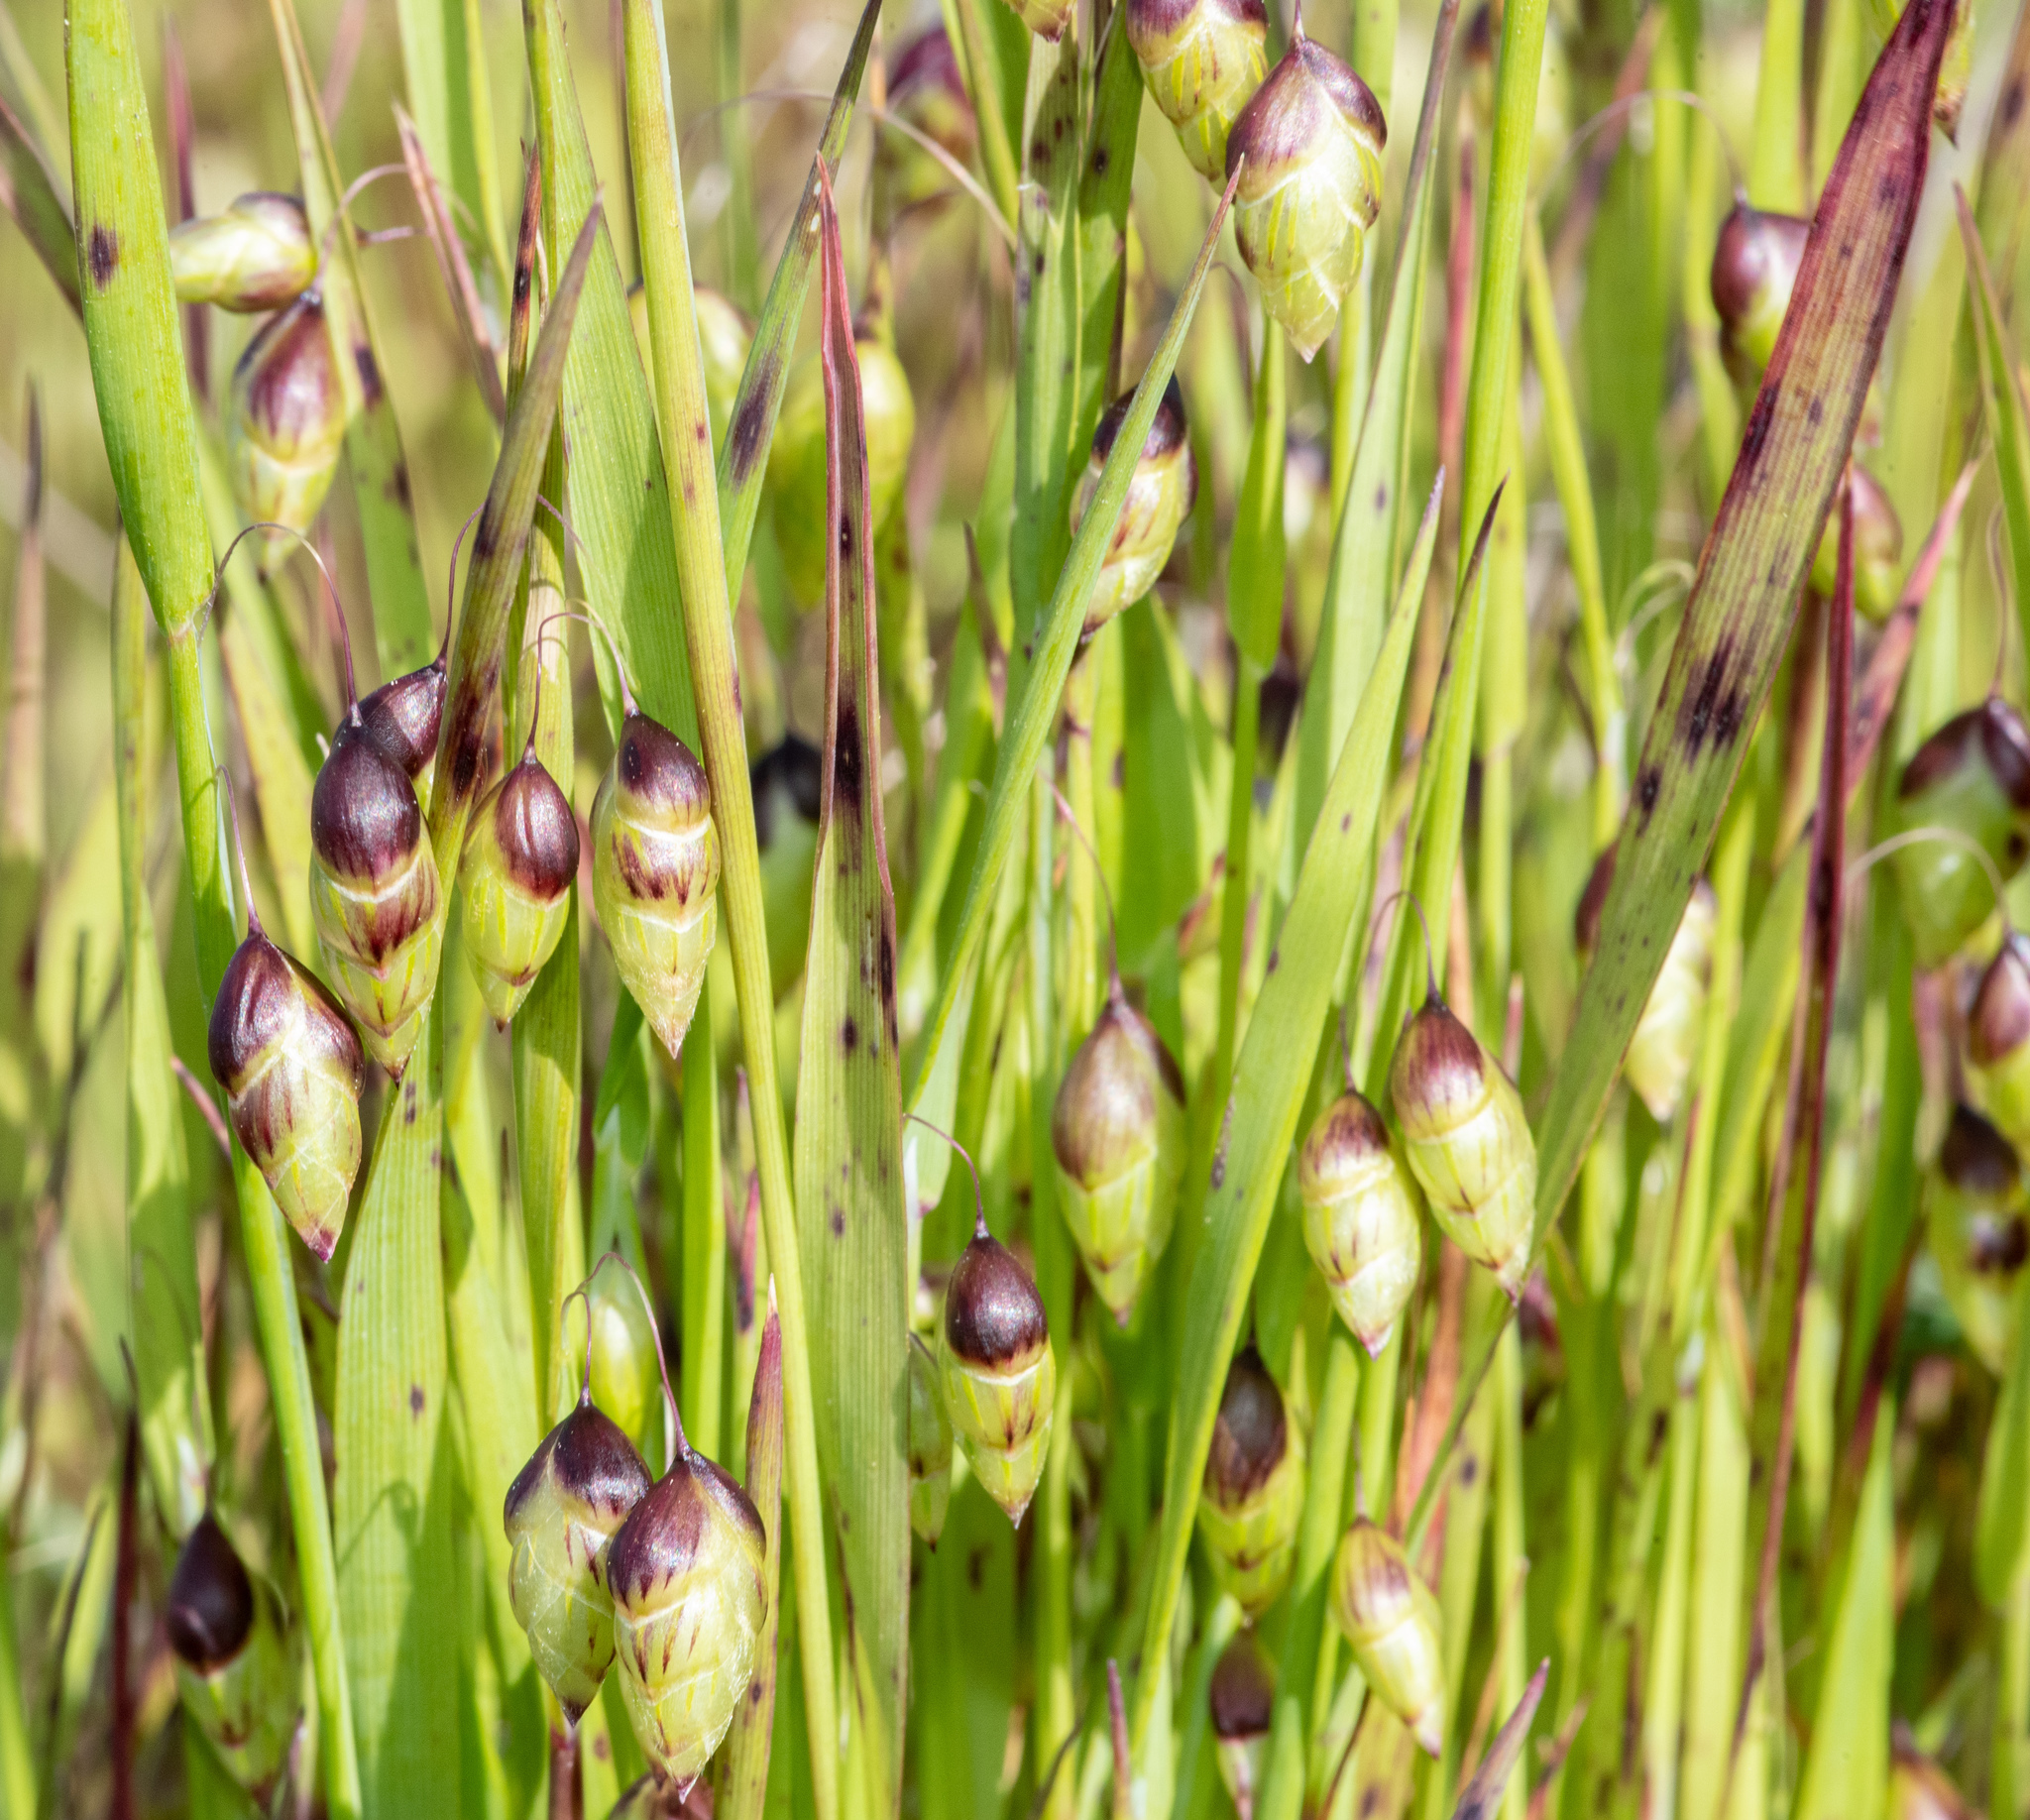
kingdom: Plantae
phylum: Tracheophyta
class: Liliopsida
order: Poales
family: Poaceae
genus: Briza
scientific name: Briza maxima
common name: Big quakinggrass
